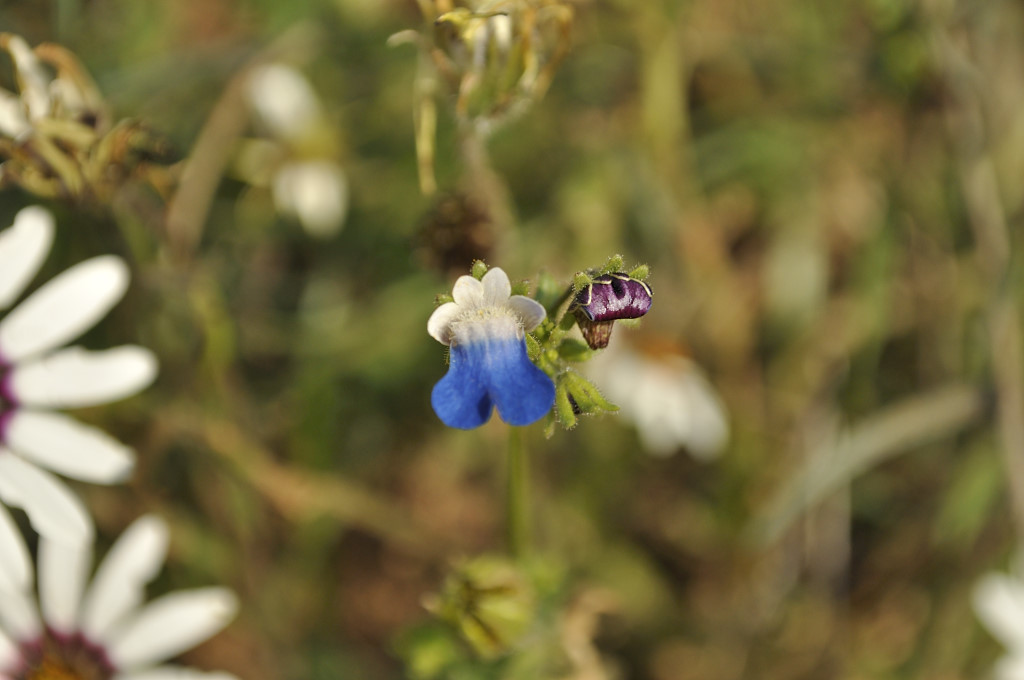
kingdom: Plantae
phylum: Tracheophyta
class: Magnoliopsida
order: Lamiales
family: Scrophulariaceae
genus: Nemesia
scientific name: Nemesia barbata
